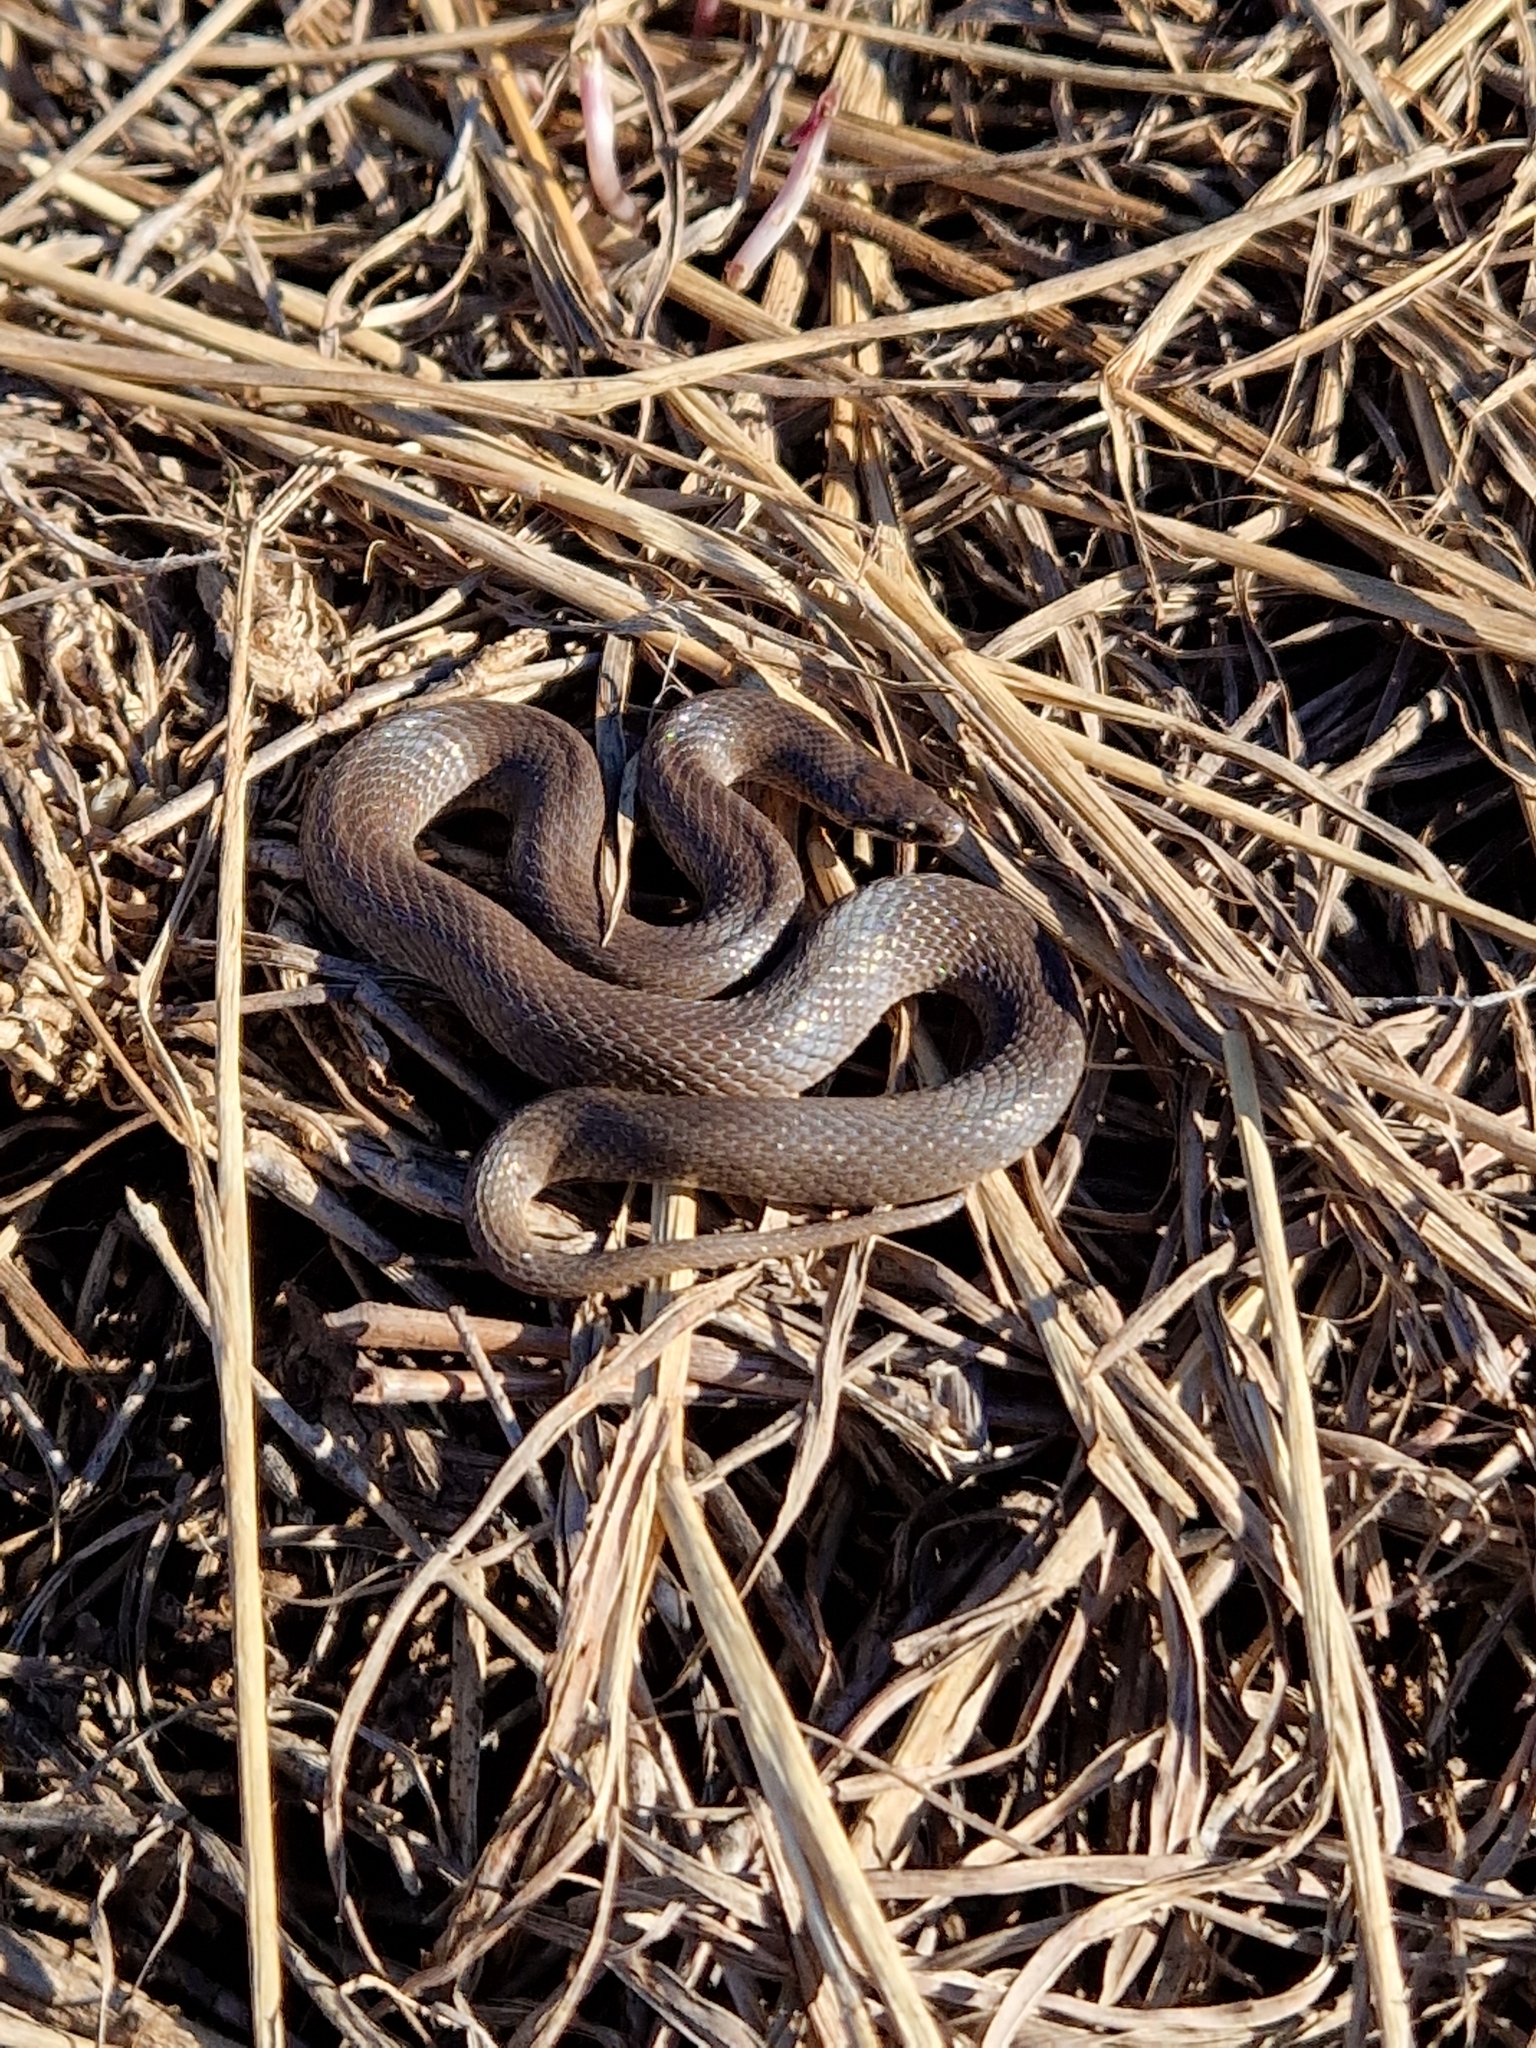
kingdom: Animalia
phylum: Chordata
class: Squamata
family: Colubridae
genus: Haldea
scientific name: Haldea striatula
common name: Rough earth snake
